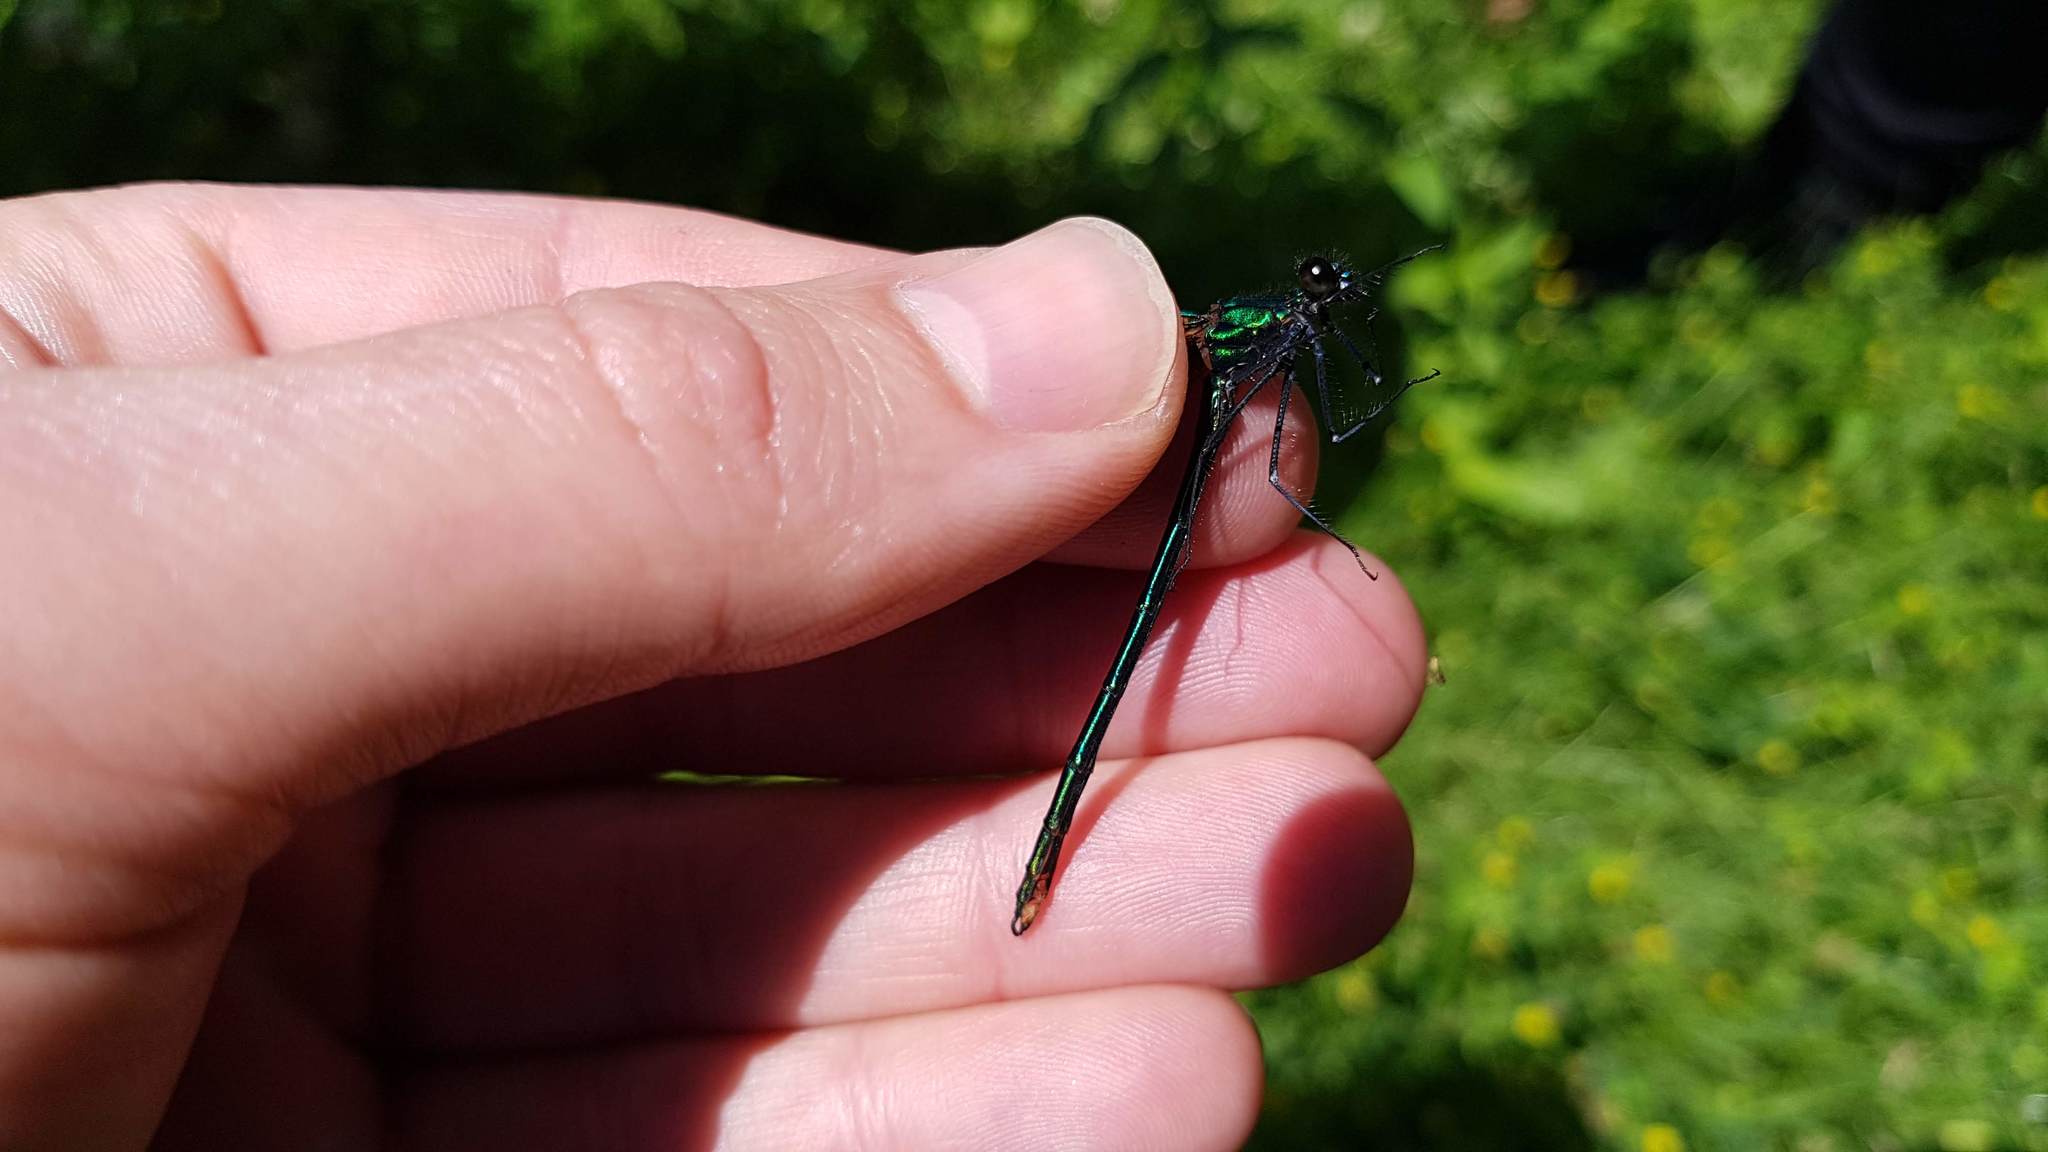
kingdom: Animalia
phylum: Arthropoda
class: Insecta
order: Odonata
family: Calopterygidae
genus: Calopteryx
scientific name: Calopteryx virgo
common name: Beautiful demoiselle
